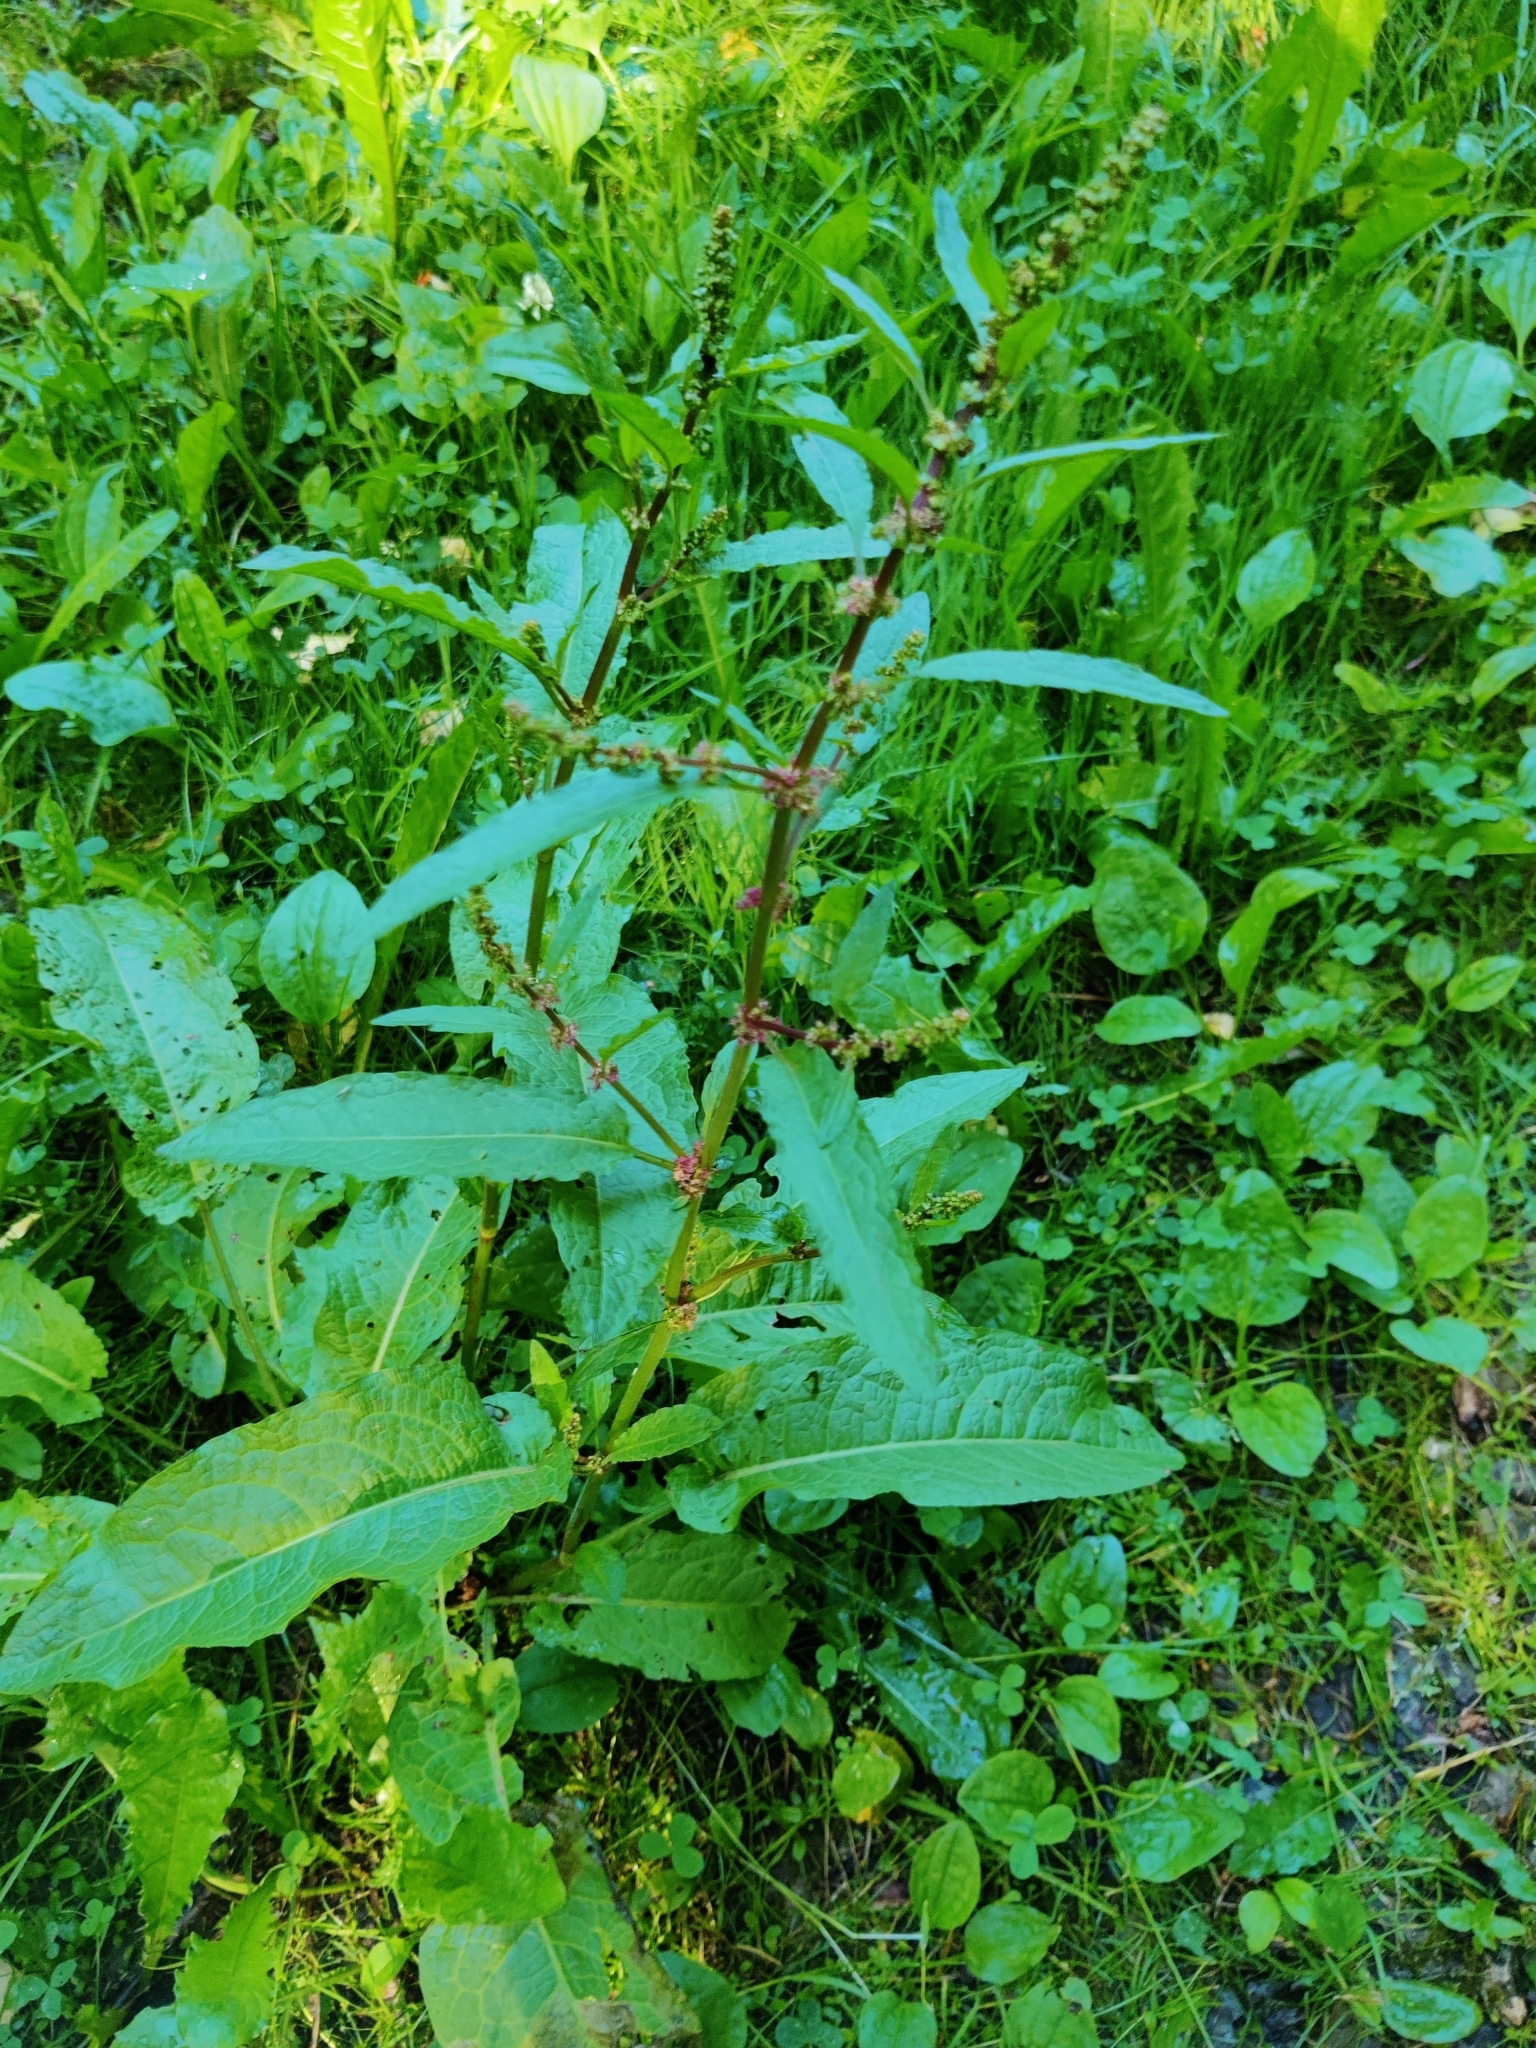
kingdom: Plantae
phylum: Tracheophyta
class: Magnoliopsida
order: Caryophyllales
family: Polygonaceae
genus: Rumex
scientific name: Rumex obtusifolius
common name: Bitter dock
